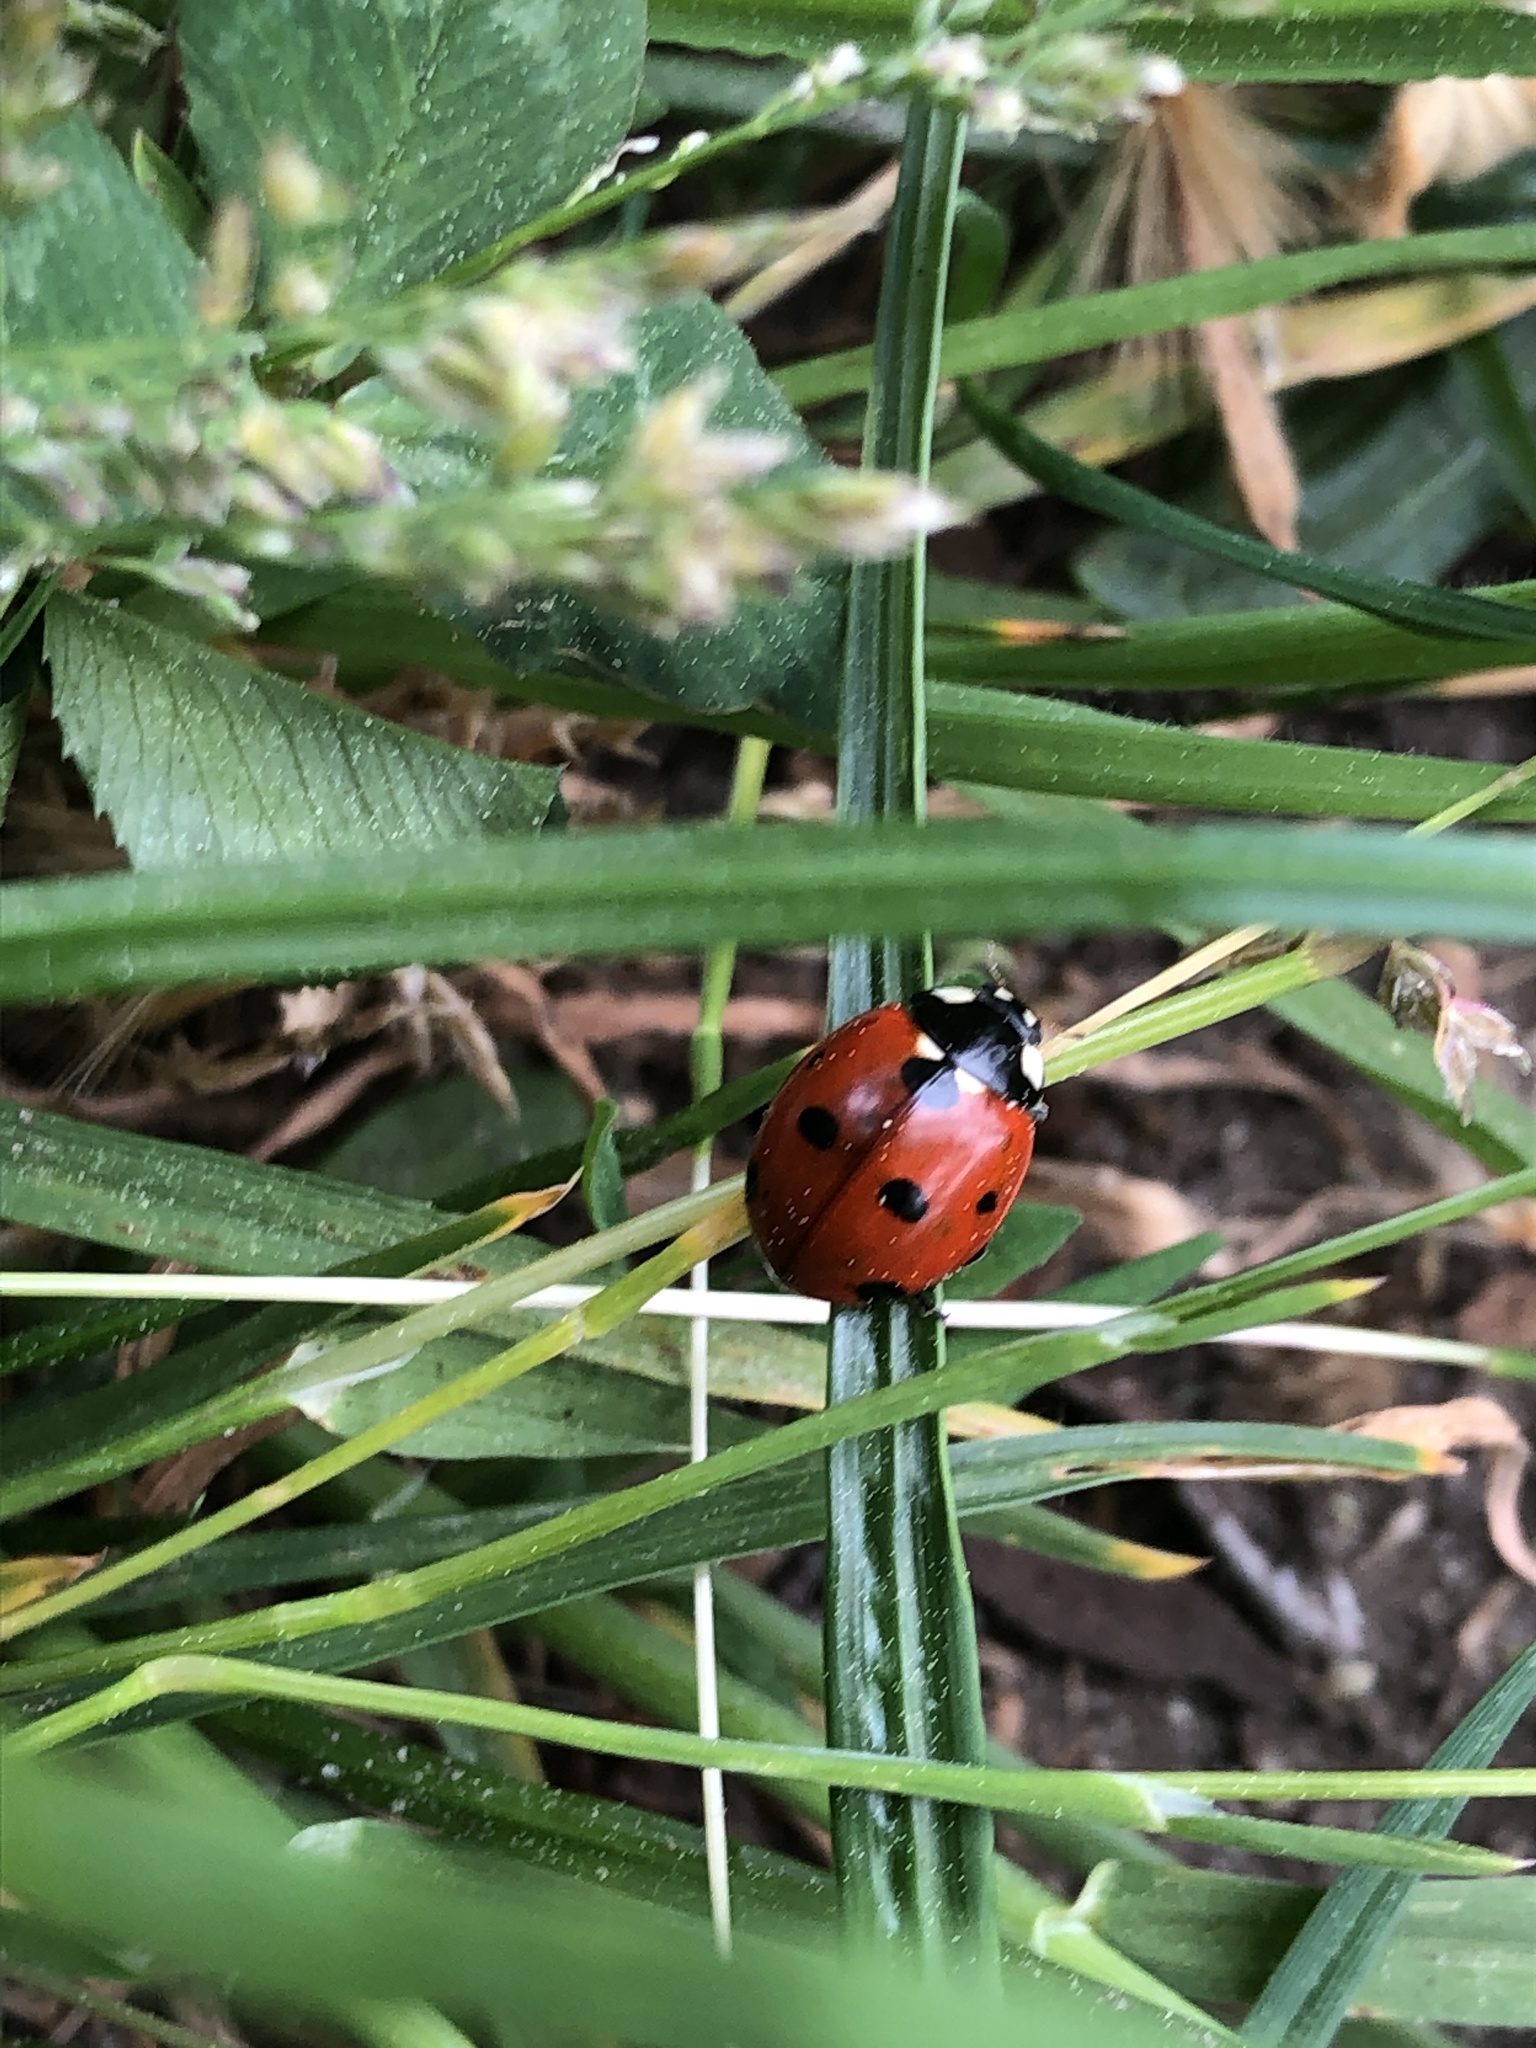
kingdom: Animalia
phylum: Arthropoda
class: Insecta
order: Coleoptera
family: Coccinellidae
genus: Coccinella
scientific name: Coccinella septempunctata
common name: Sevenspotted lady beetle
